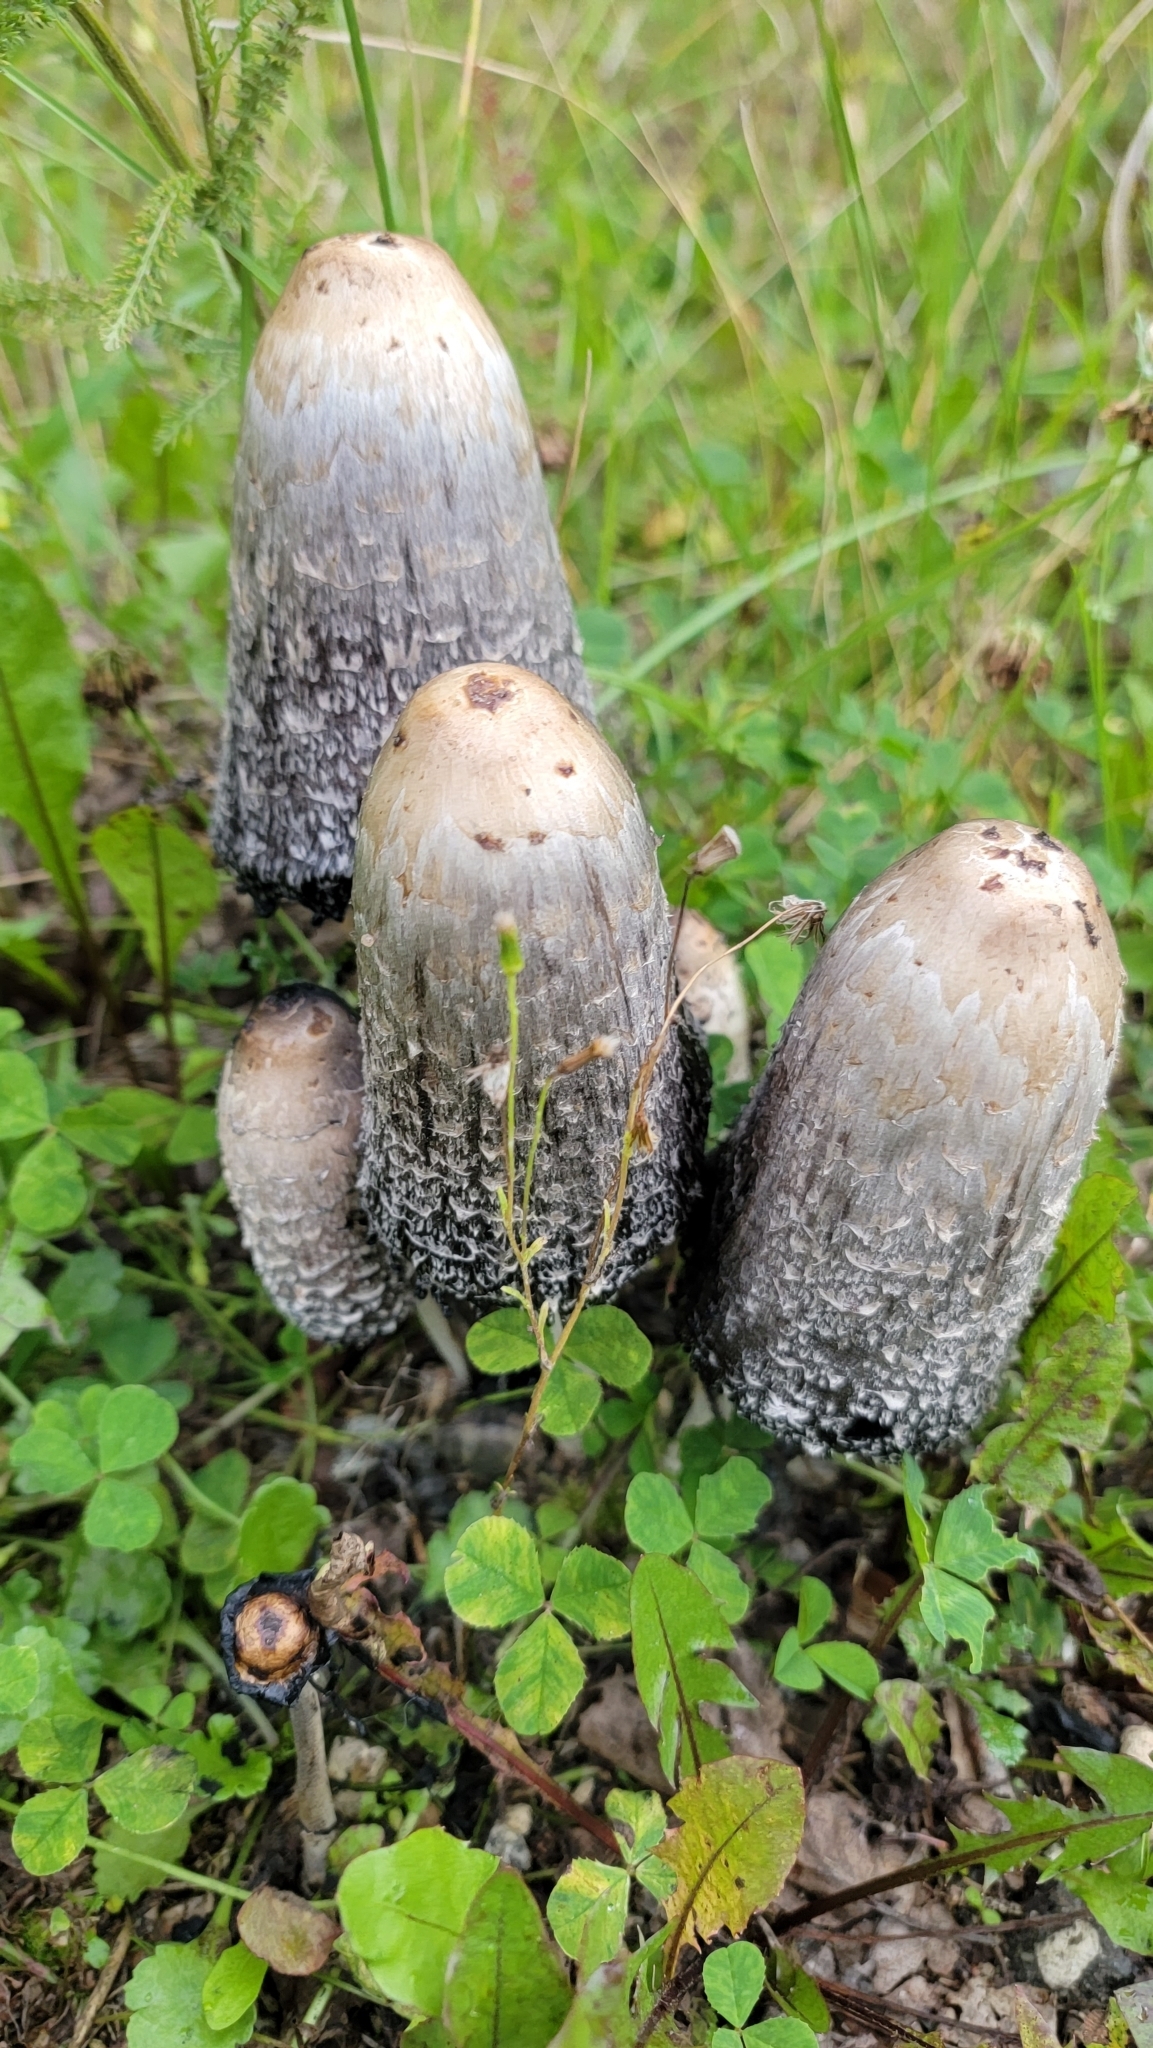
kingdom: Fungi
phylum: Basidiomycota
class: Agaricomycetes
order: Agaricales
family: Agaricaceae
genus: Coprinus
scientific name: Coprinus comatus
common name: Lawyer's wig
